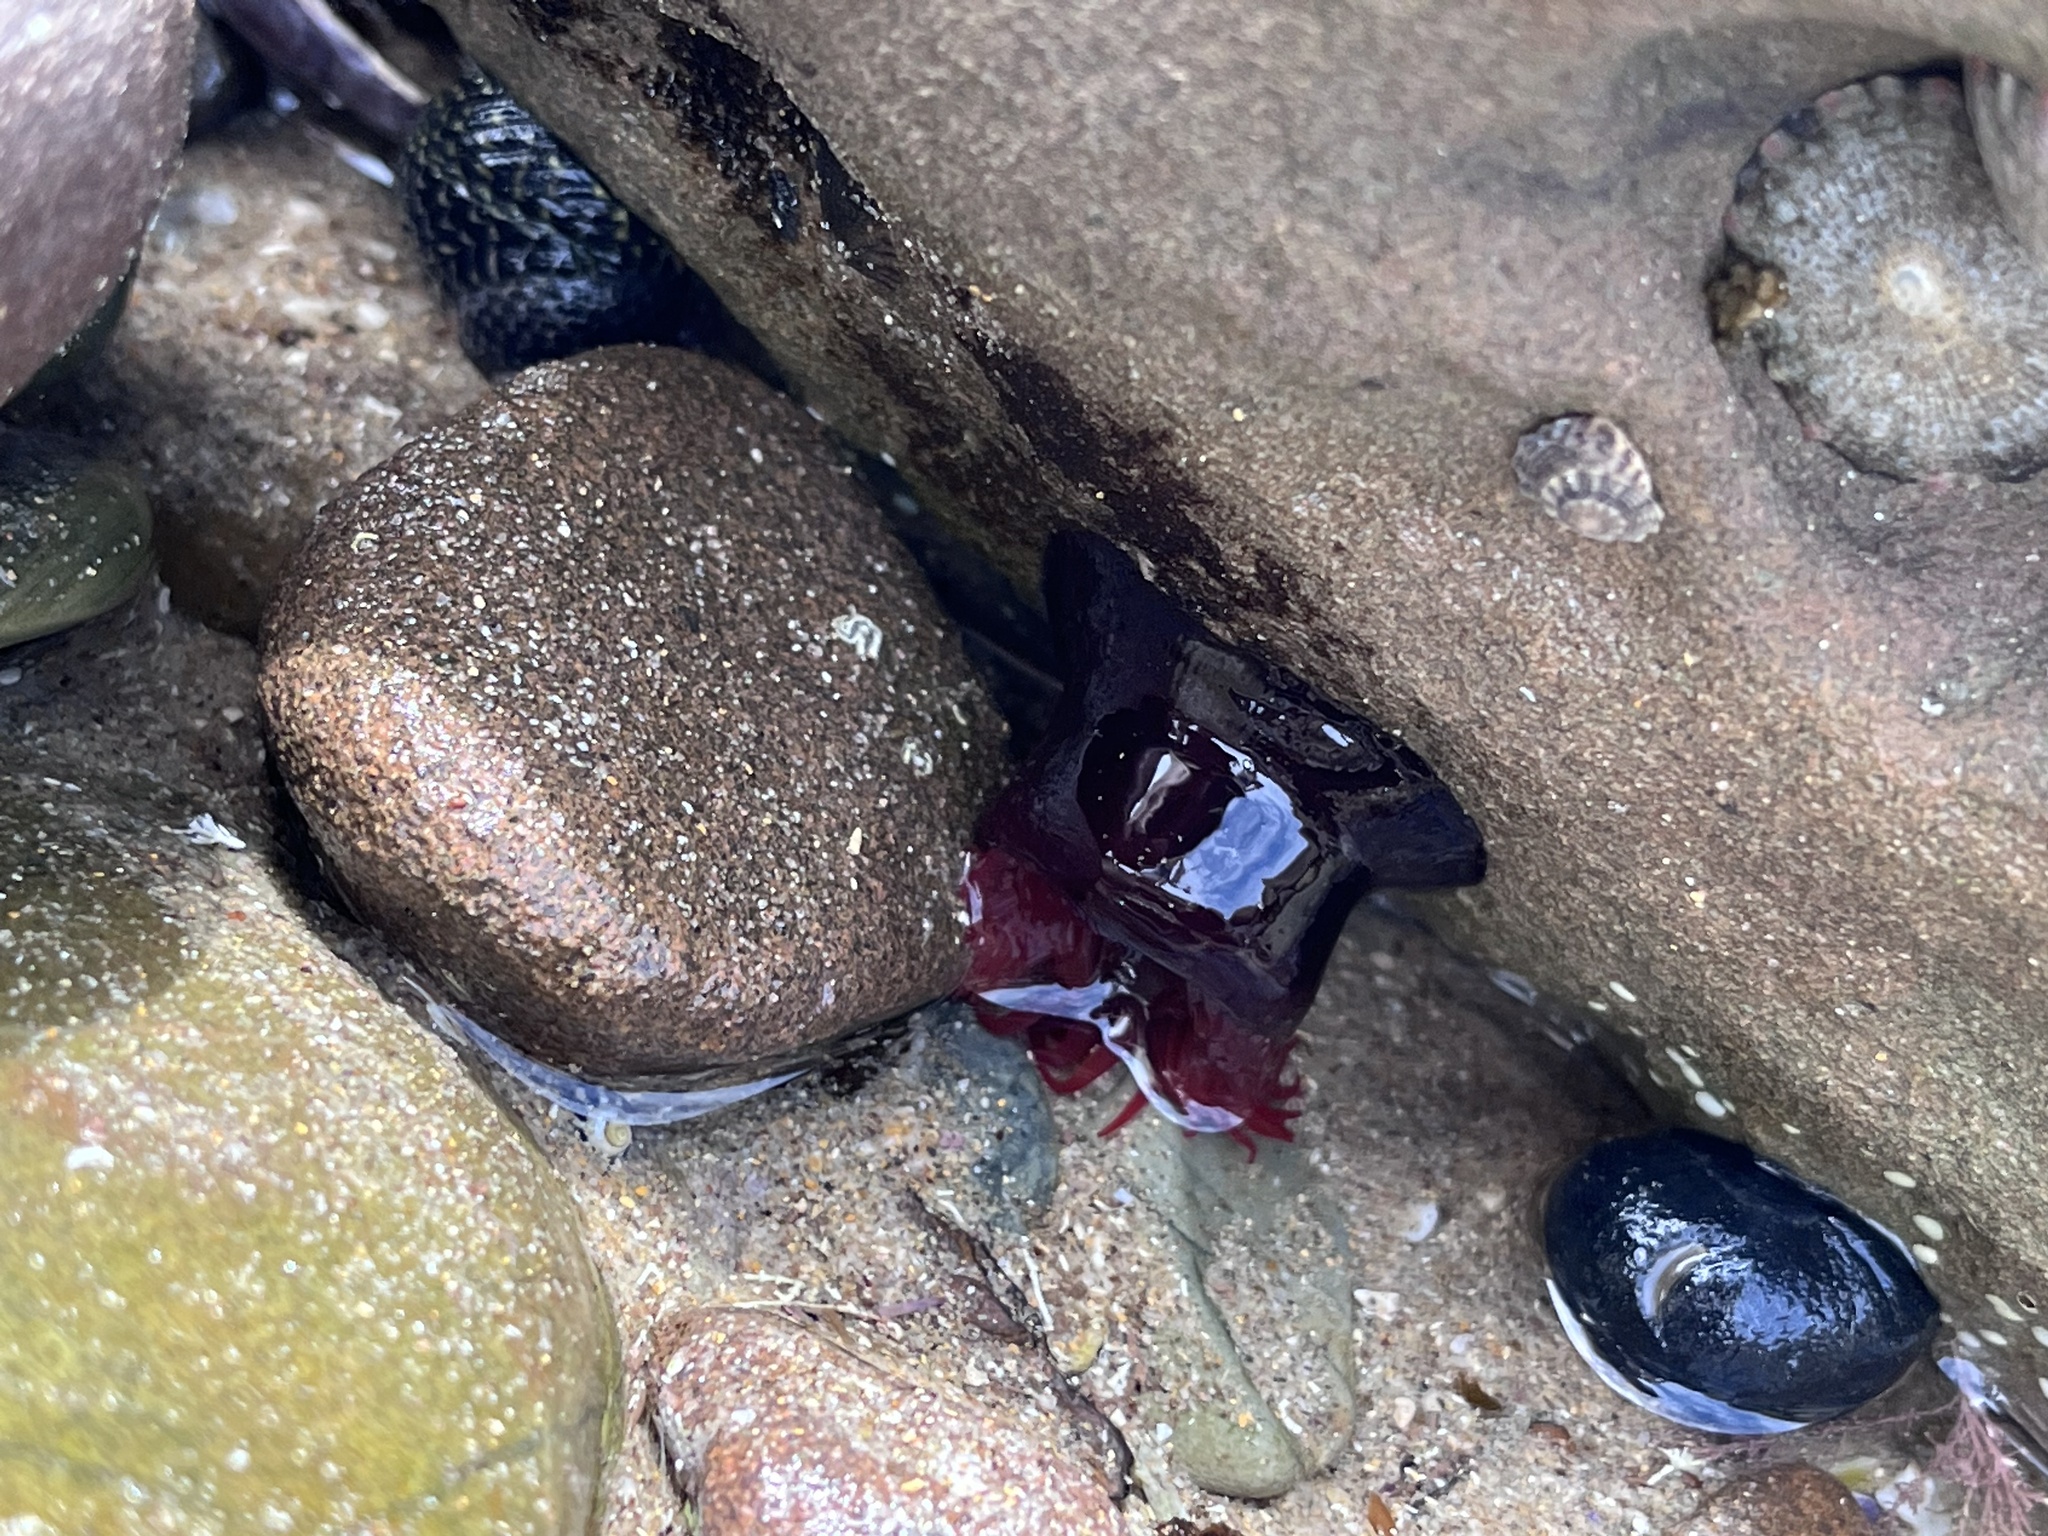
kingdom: Animalia
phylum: Cnidaria
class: Anthozoa
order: Actiniaria
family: Actiniidae
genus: Actinia
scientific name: Actinia tenebrosa
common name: Waratah anemone
